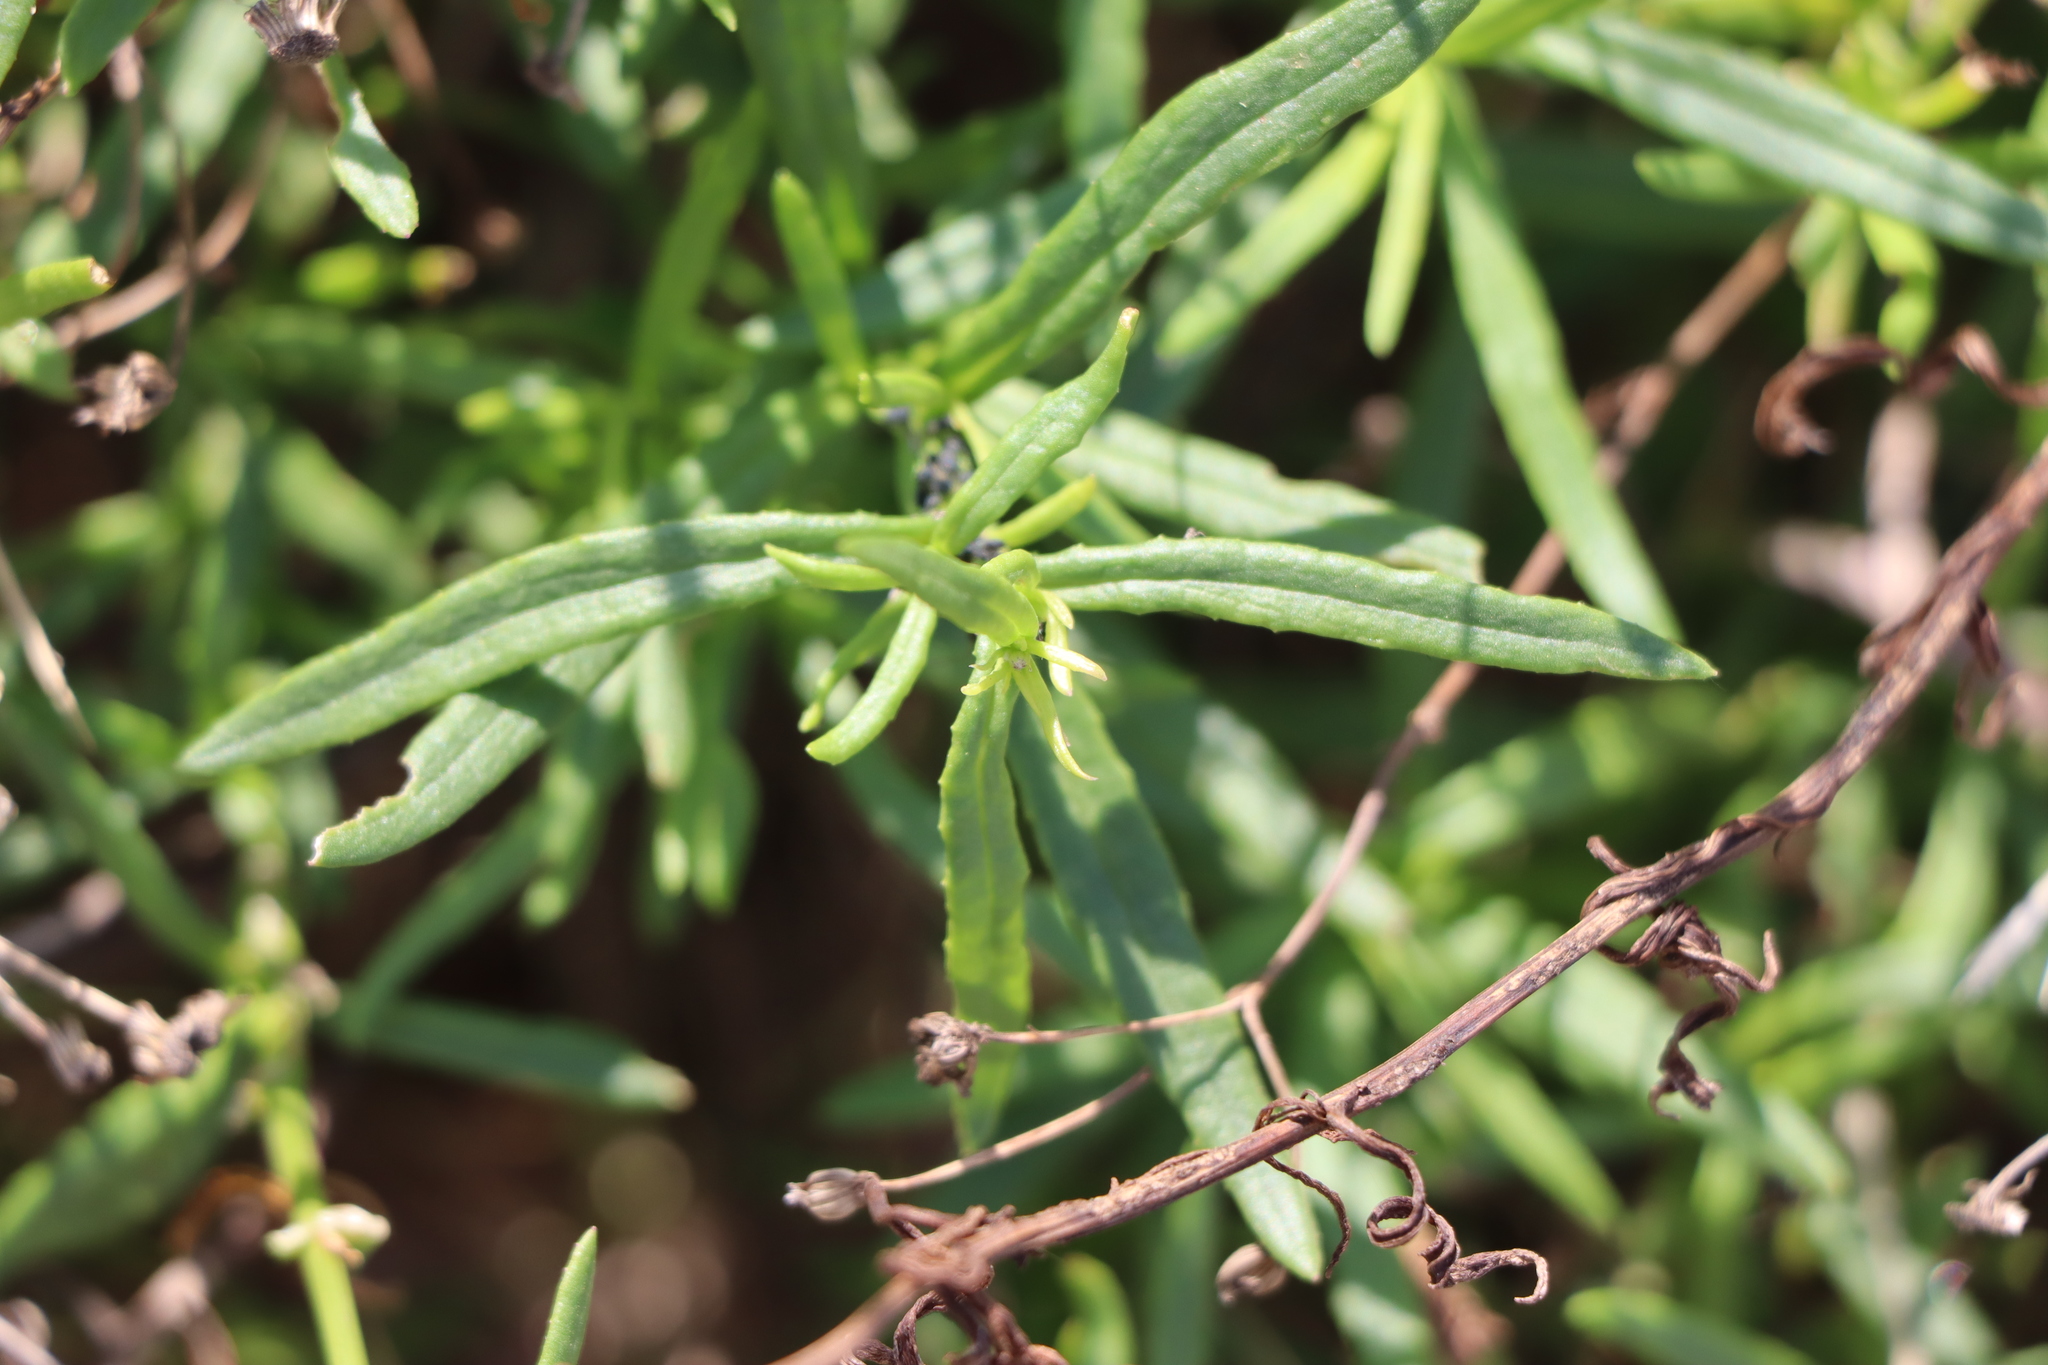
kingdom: Plantae
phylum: Tracheophyta
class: Magnoliopsida
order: Lamiales
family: Verbenaceae
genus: Verbena
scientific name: Verbena selloi
